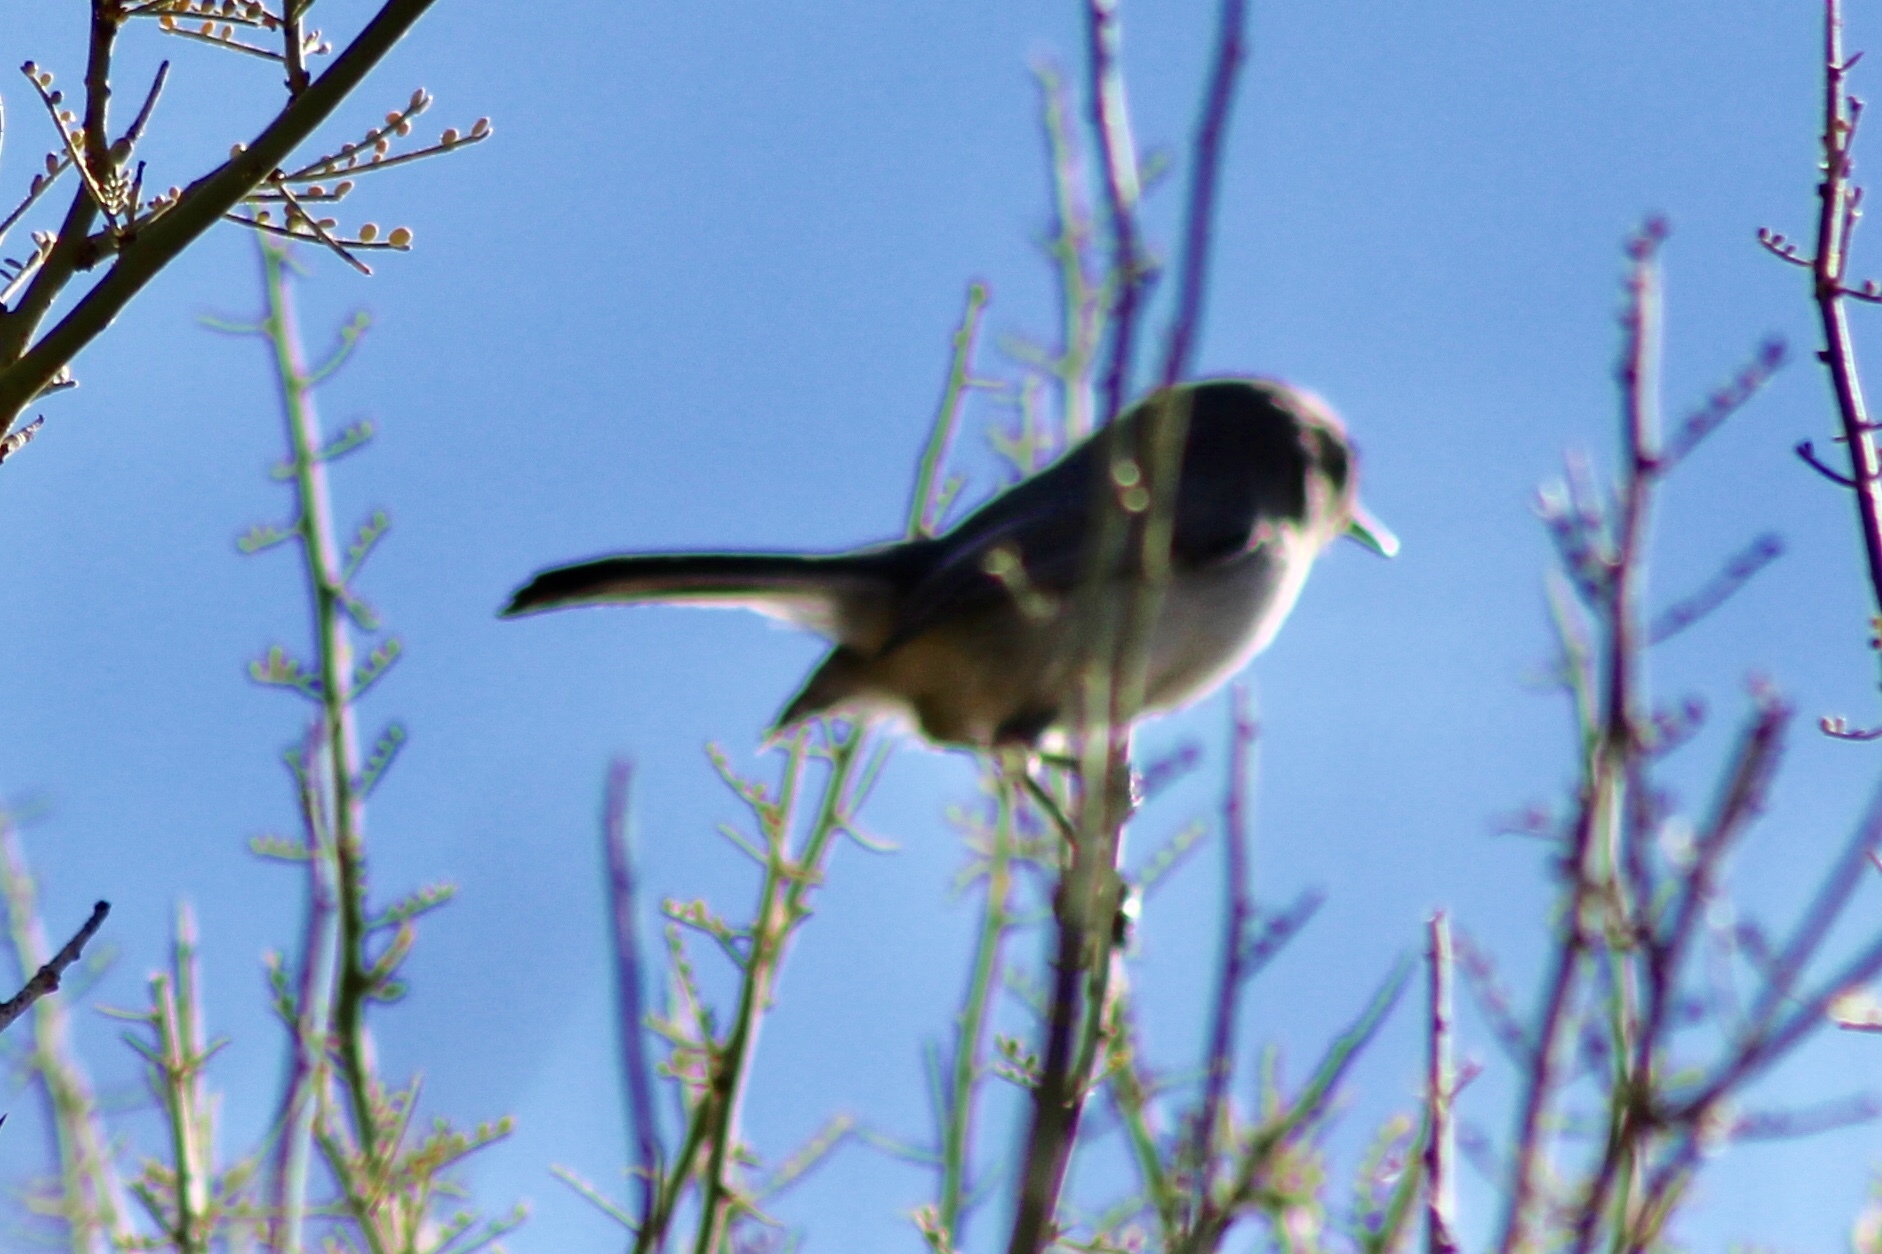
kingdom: Animalia
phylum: Chordata
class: Aves
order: Passeriformes
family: Polioptilidae
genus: Polioptila
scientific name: Polioptila melanura
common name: Black-tailed gnatcatcher
